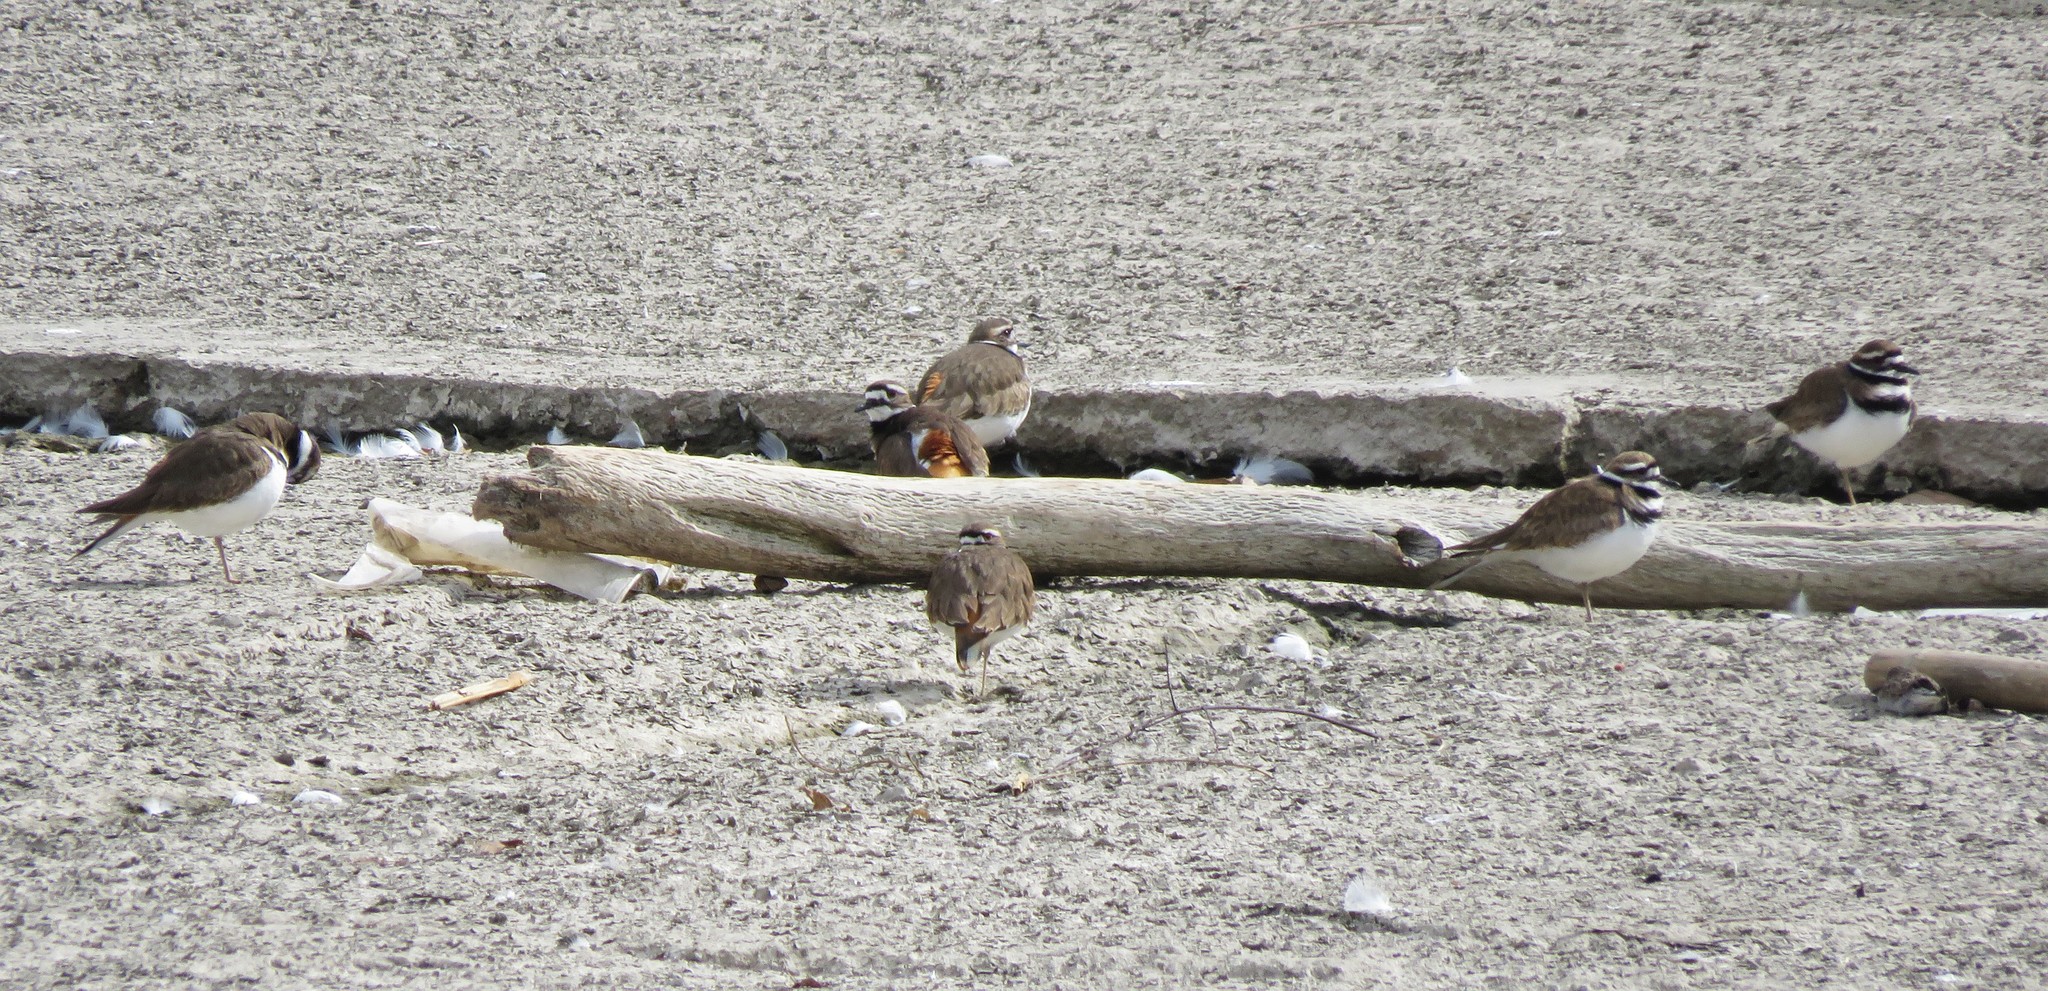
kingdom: Animalia
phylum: Chordata
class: Aves
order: Charadriiformes
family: Charadriidae
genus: Charadrius
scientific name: Charadrius vociferus
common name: Killdeer
